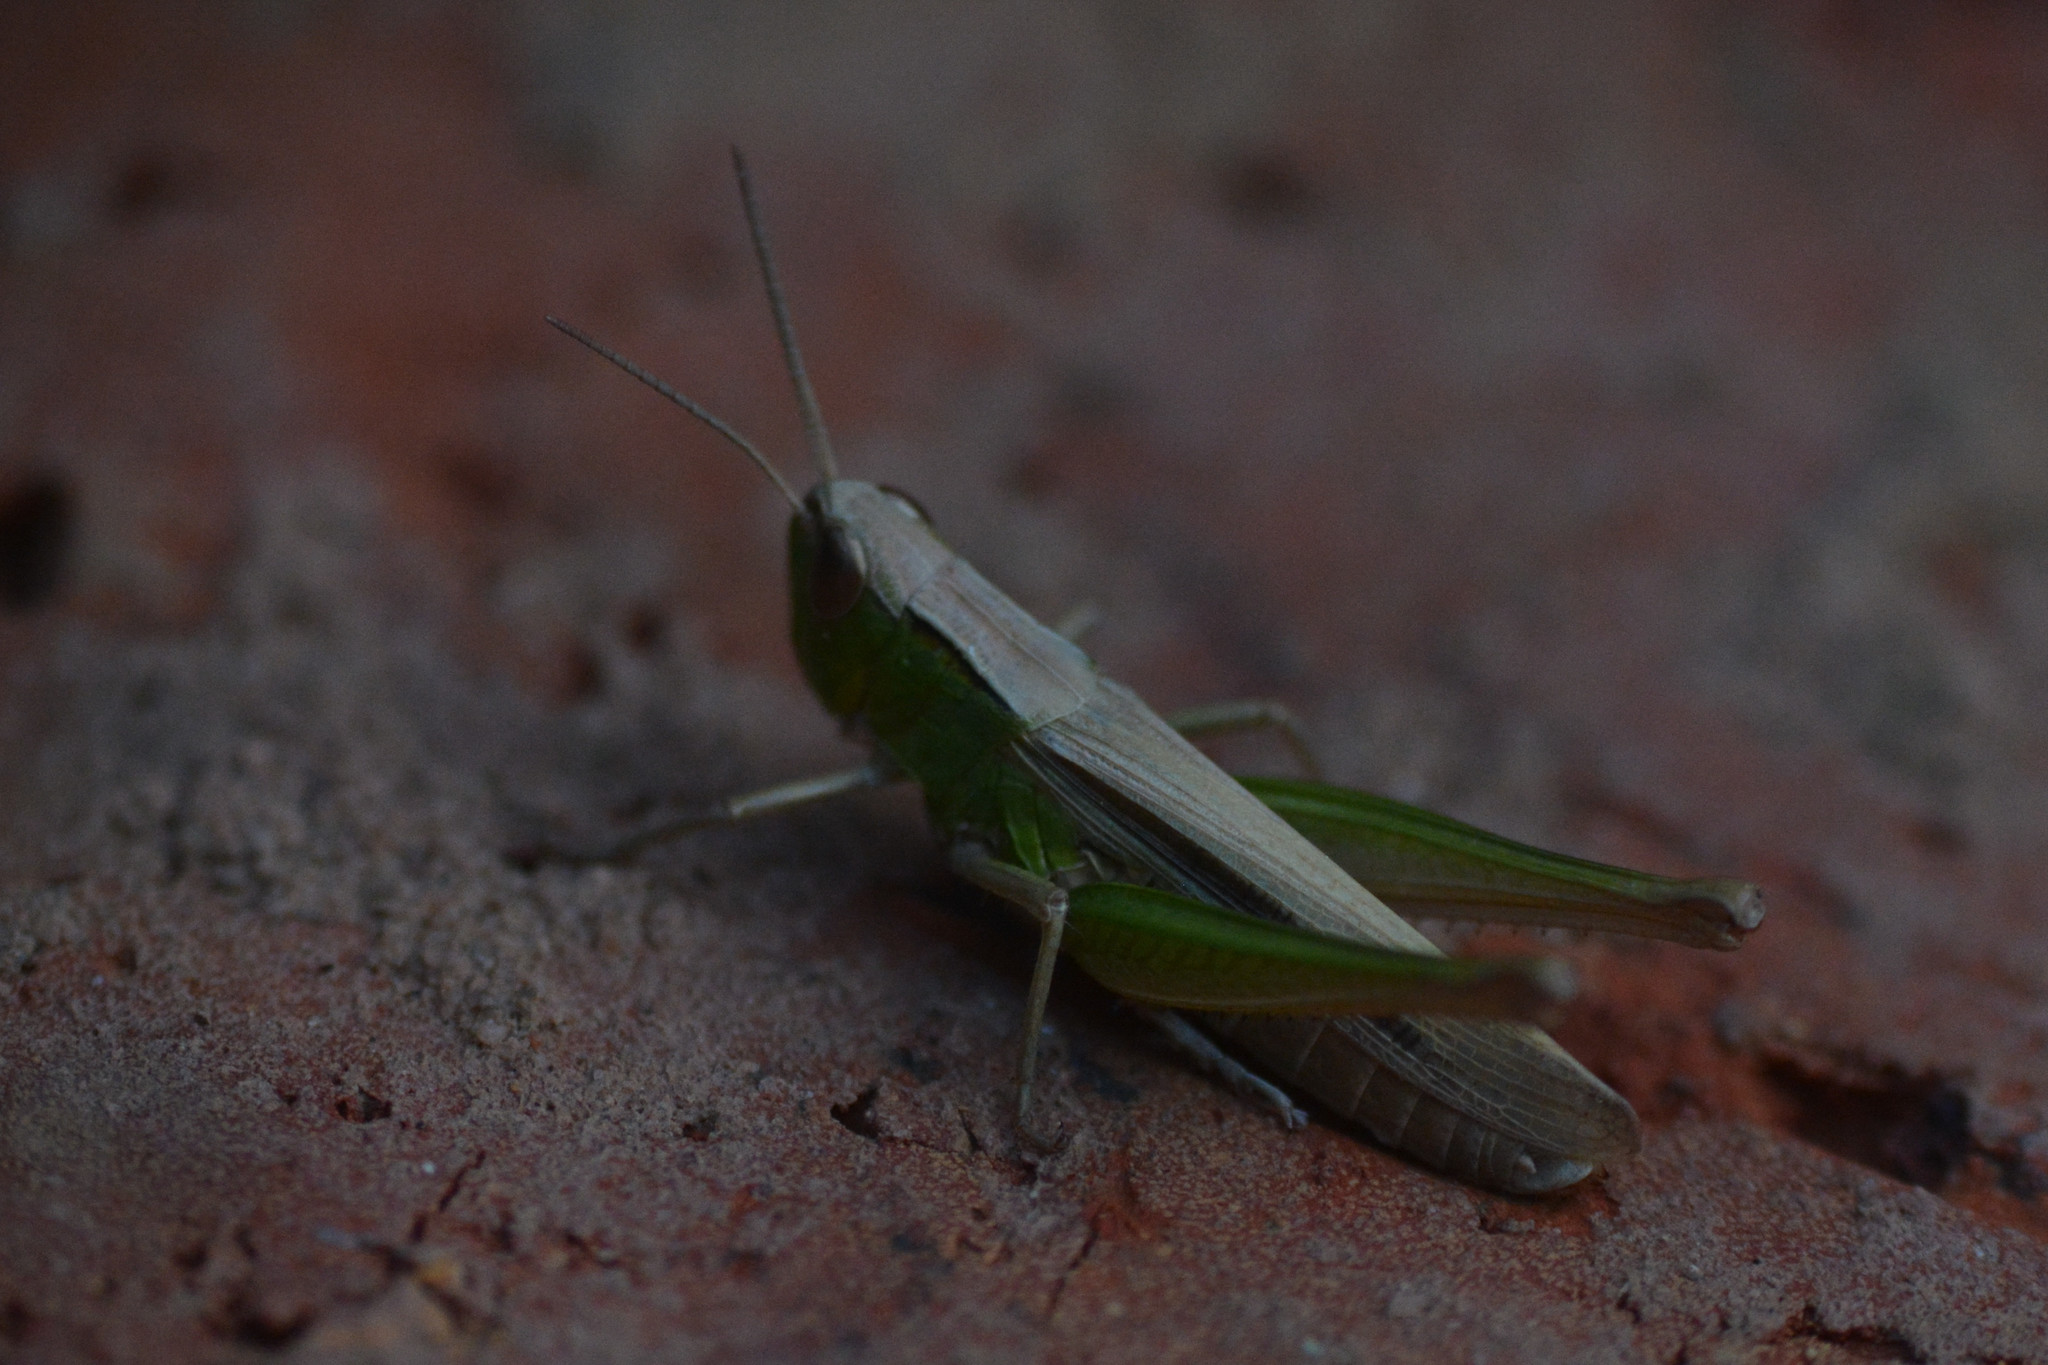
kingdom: Animalia
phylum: Arthropoda
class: Insecta
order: Orthoptera
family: Acrididae
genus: Chorthippus
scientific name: Chorthippus albomarginatus
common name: Lesser marsh grasshopper
